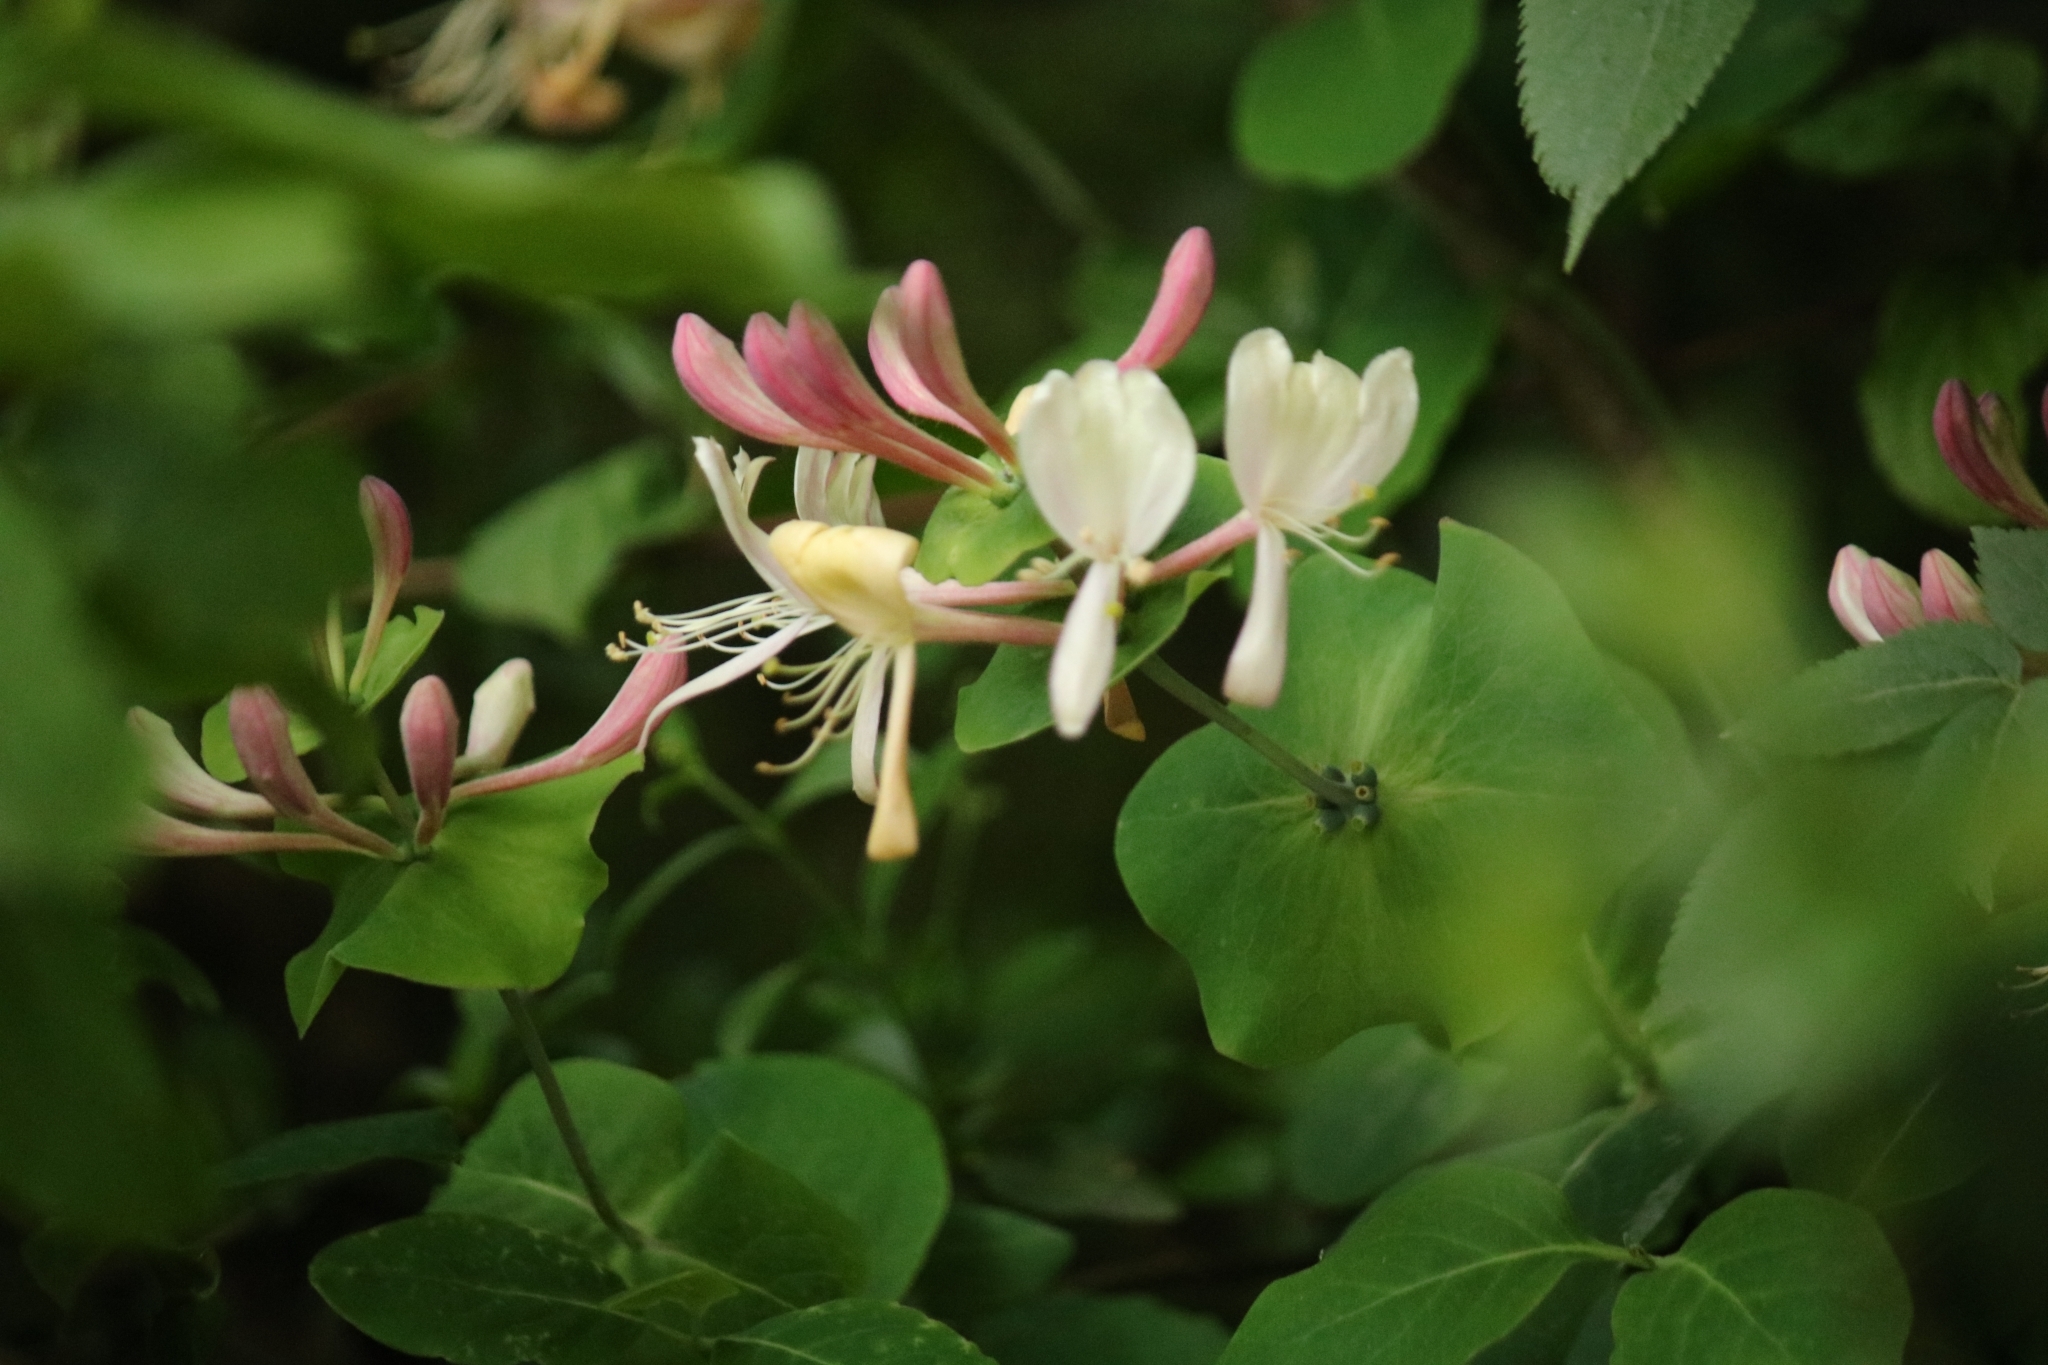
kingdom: Plantae
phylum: Tracheophyta
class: Magnoliopsida
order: Dipsacales
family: Caprifoliaceae
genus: Lonicera
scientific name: Lonicera caprifolium
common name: Perfoliate honeysuckle
